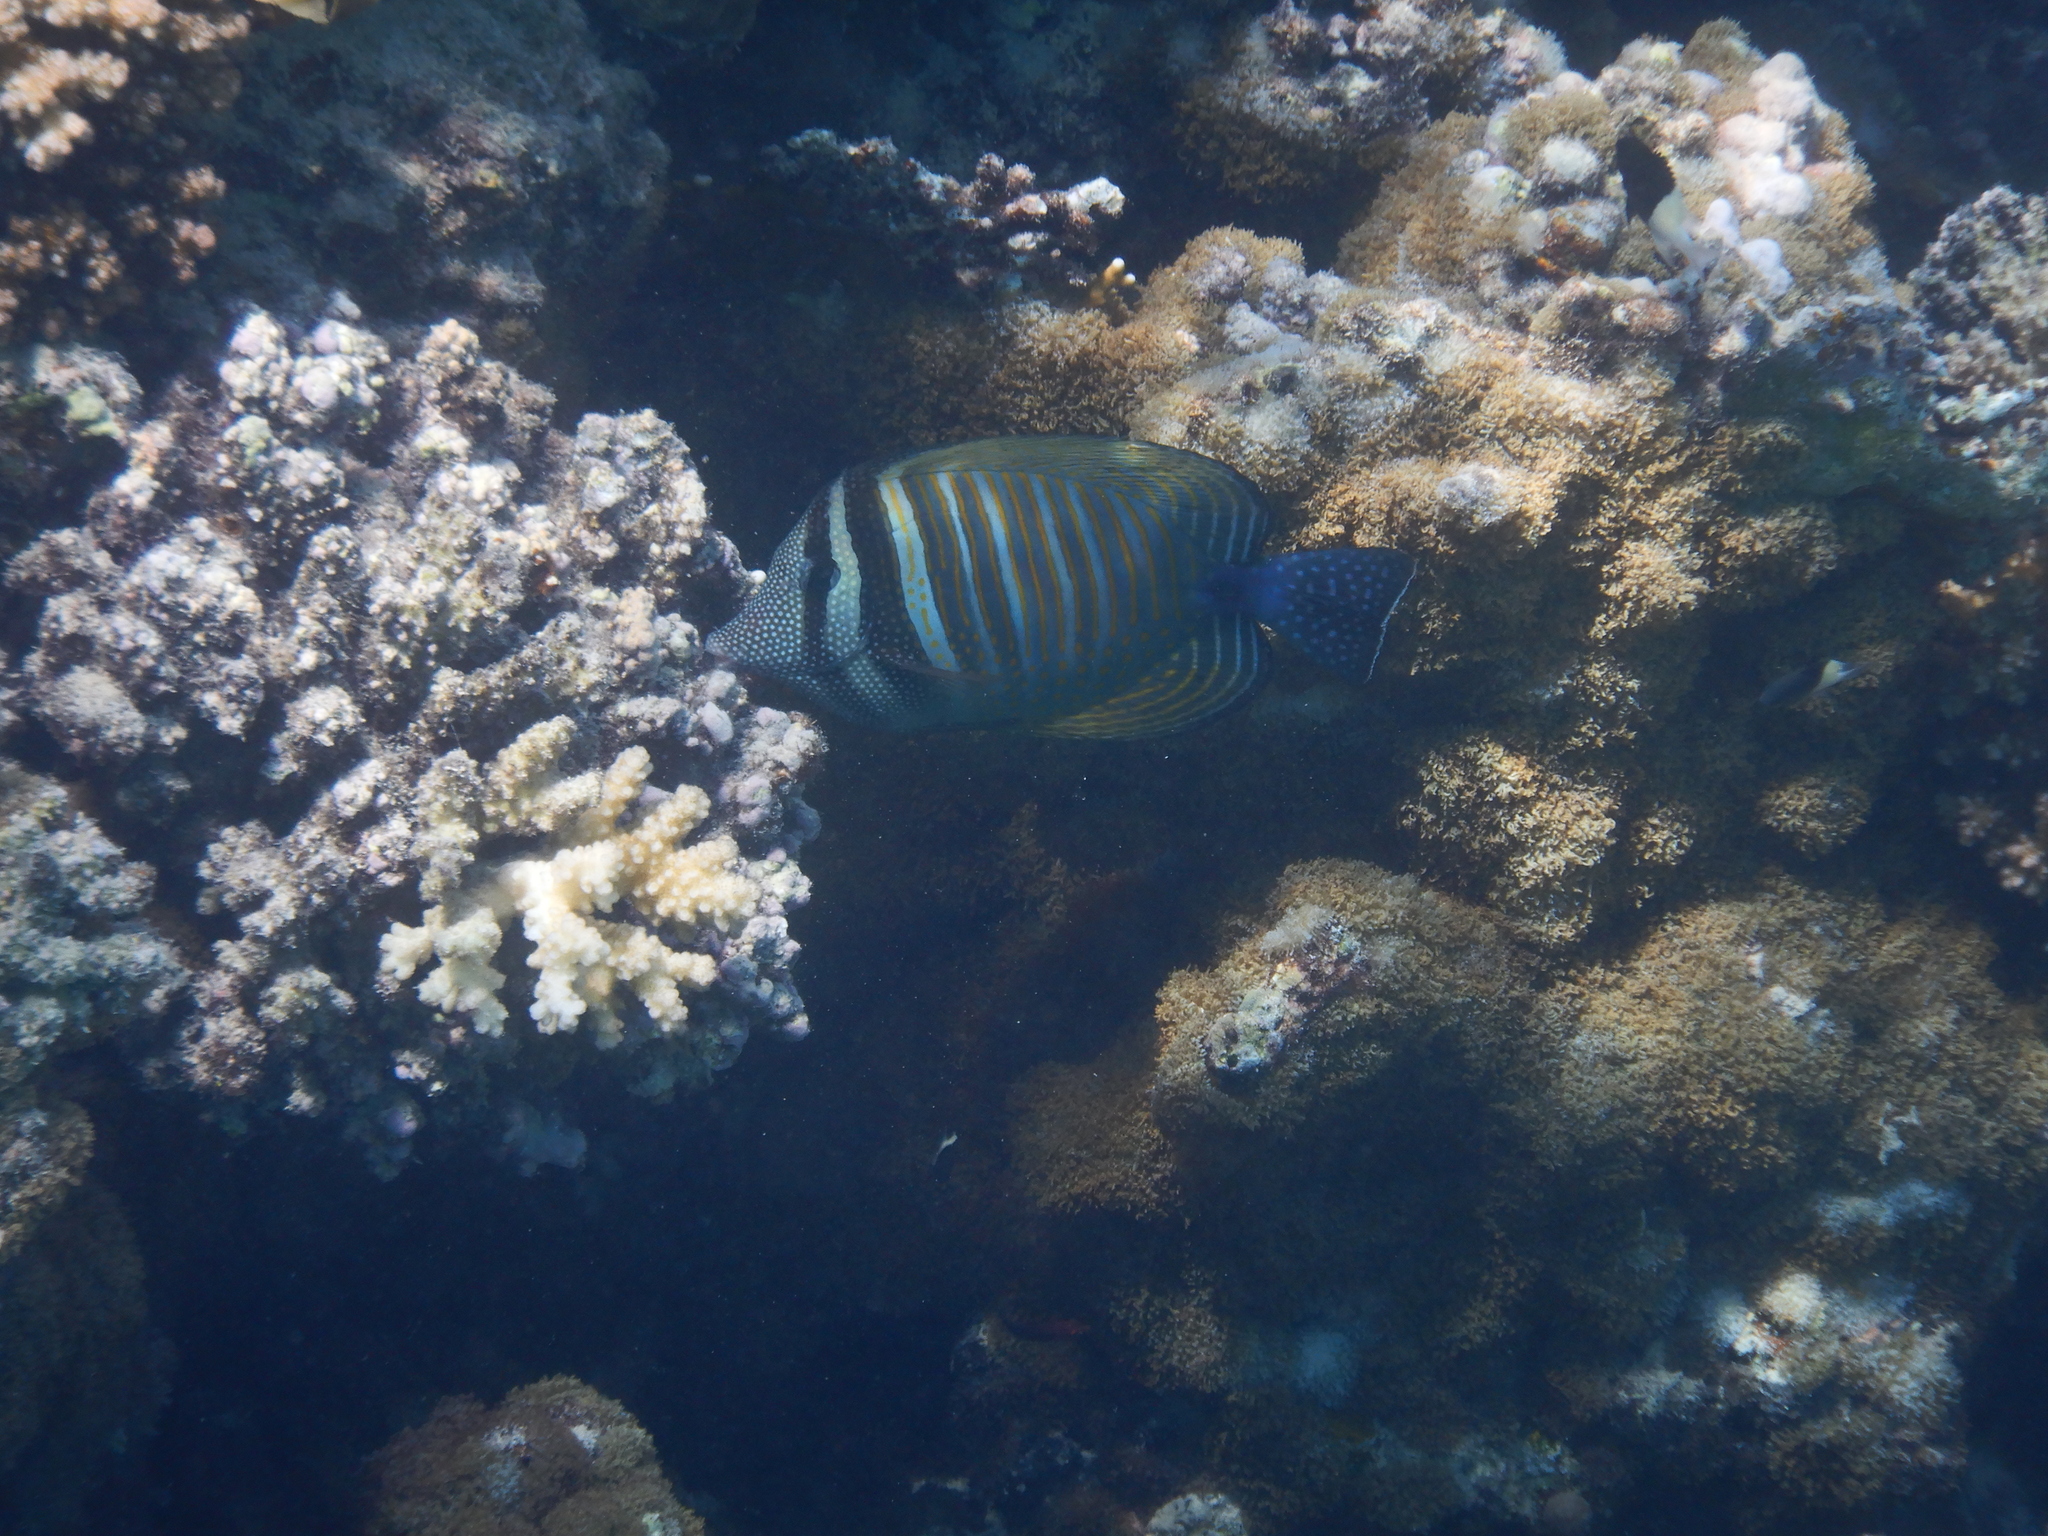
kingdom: Animalia
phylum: Chordata
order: Perciformes
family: Acanthuridae
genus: Zebrasoma
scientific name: Zebrasoma desjardinii
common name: Desjardin's sailfin tang
